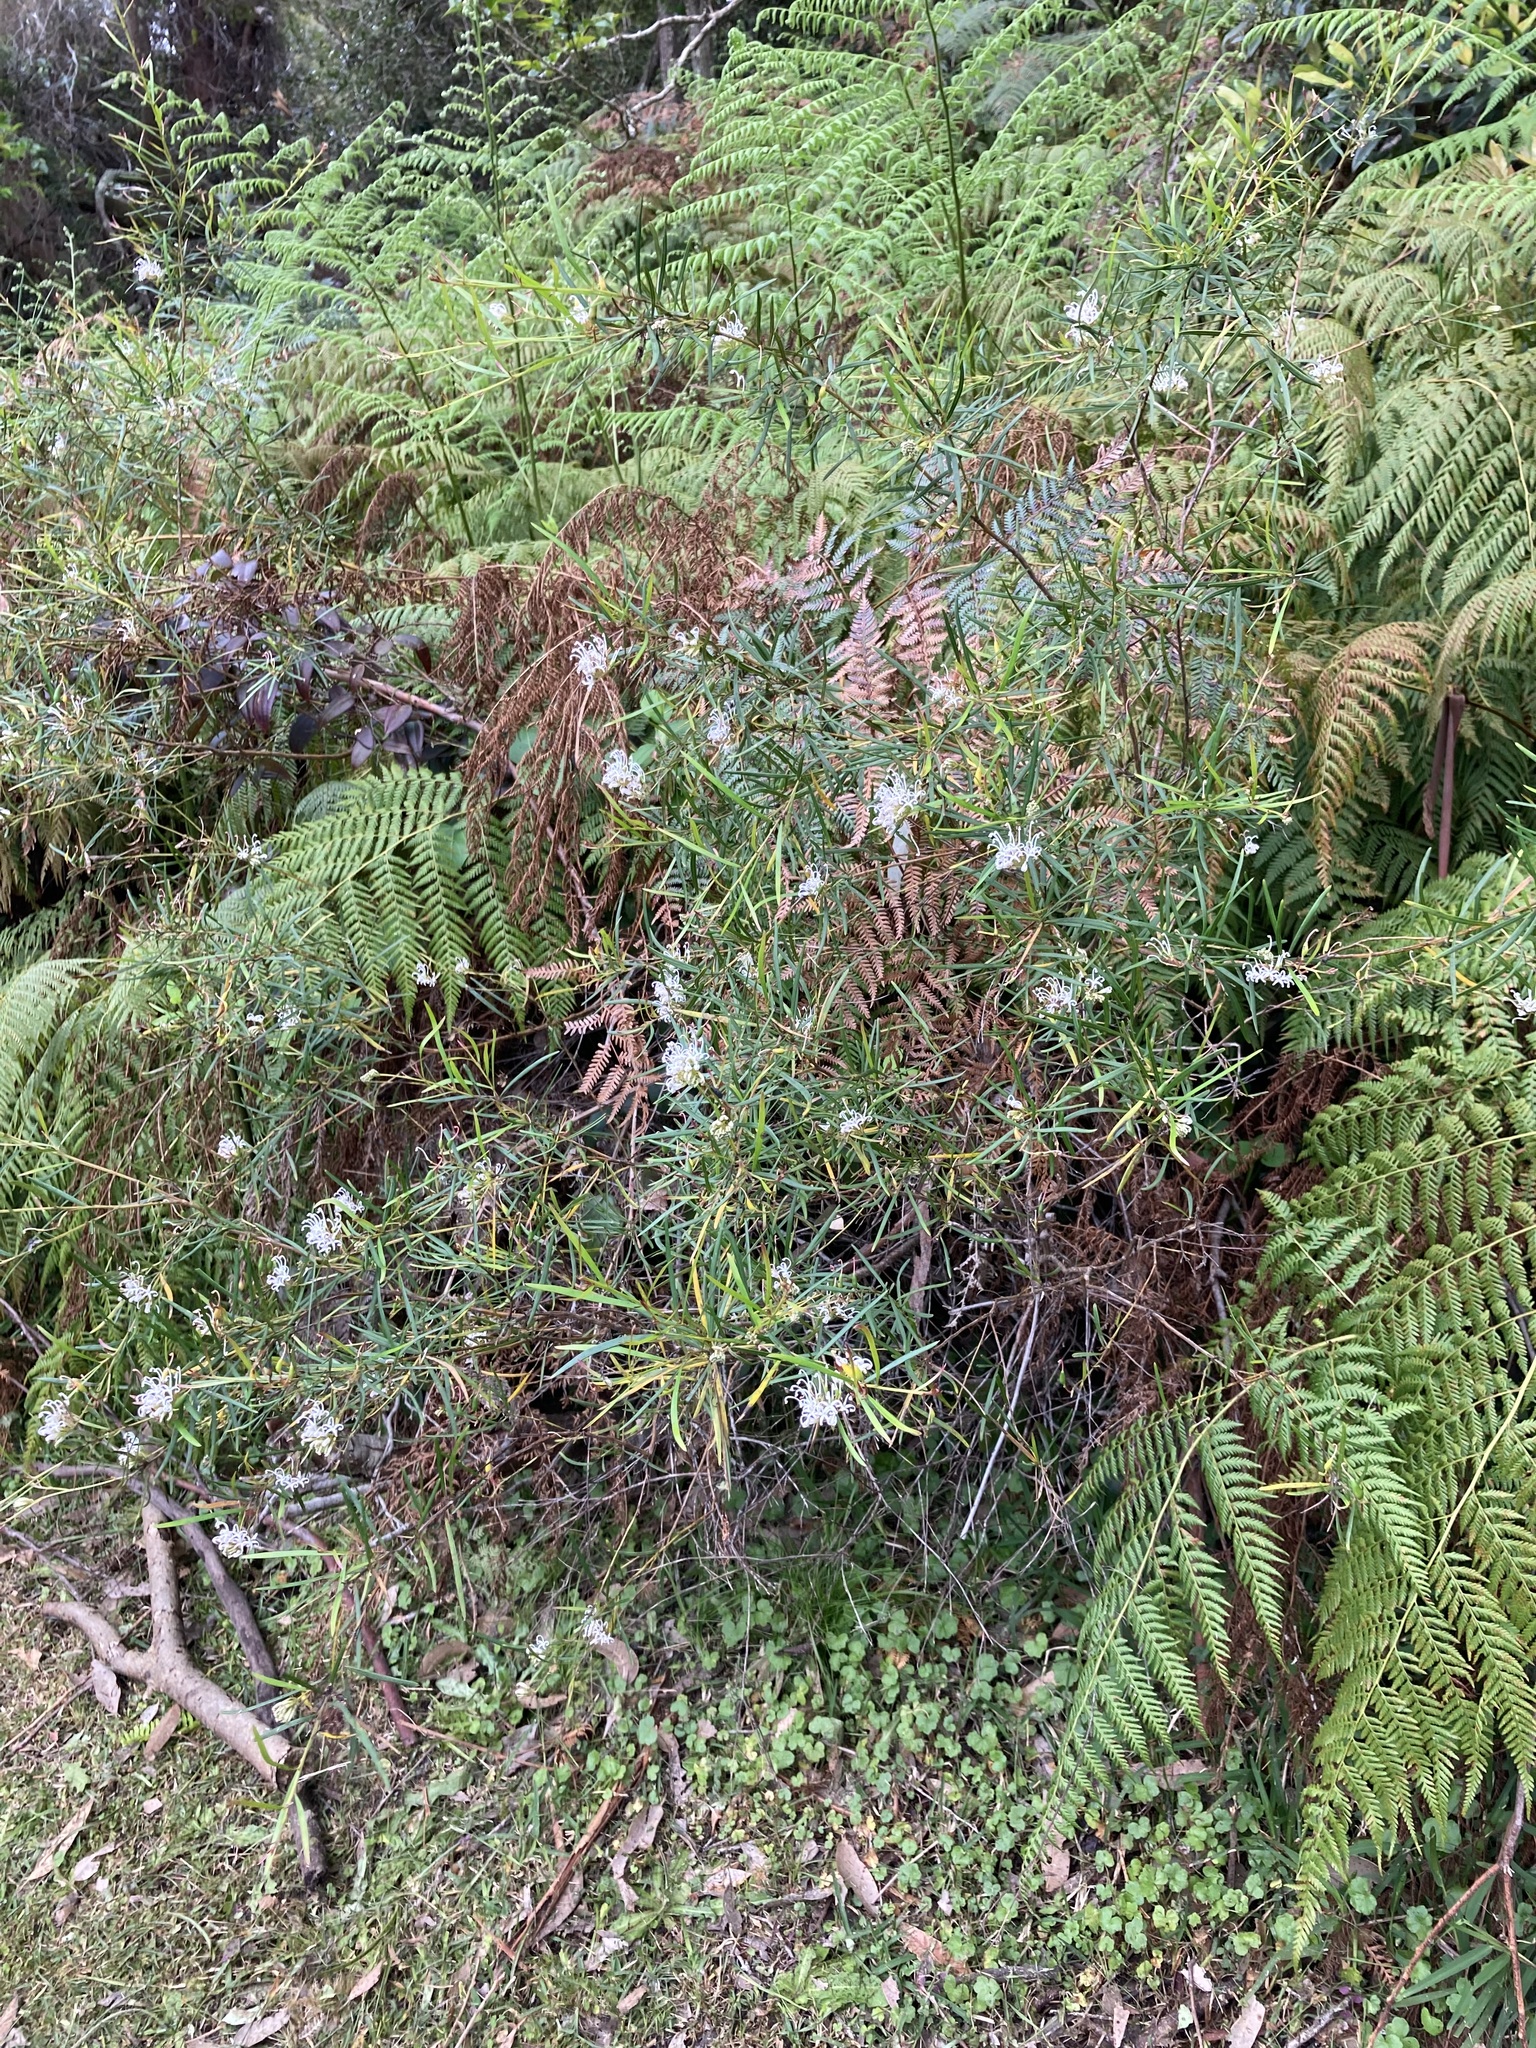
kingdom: Plantae
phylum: Tracheophyta
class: Magnoliopsida
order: Proteales
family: Proteaceae
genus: Grevillea
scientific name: Grevillea linearifolia
